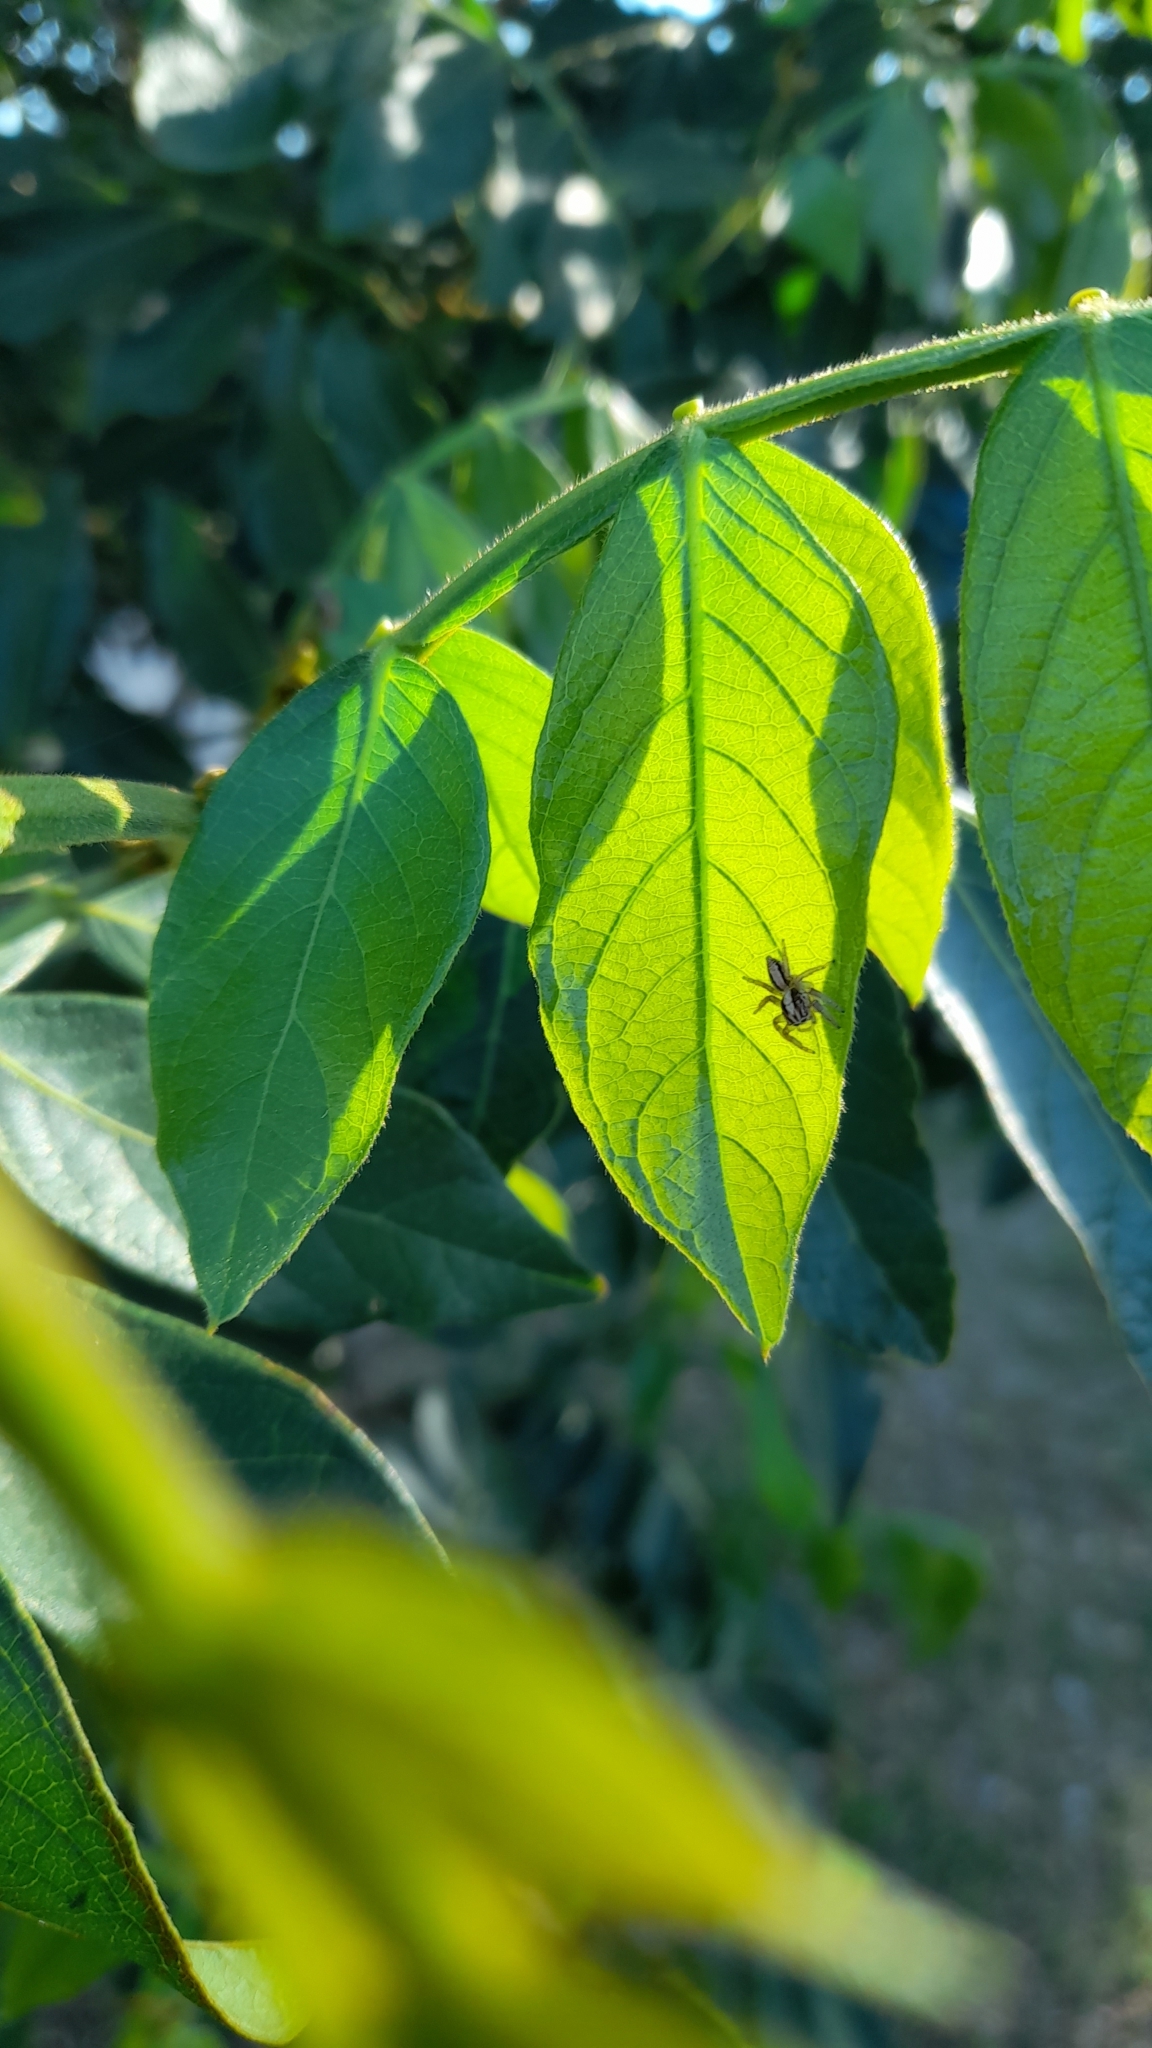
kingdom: Animalia
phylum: Arthropoda
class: Arachnida
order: Araneae
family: Salticidae
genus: Megafreya
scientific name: Megafreya sutrix
